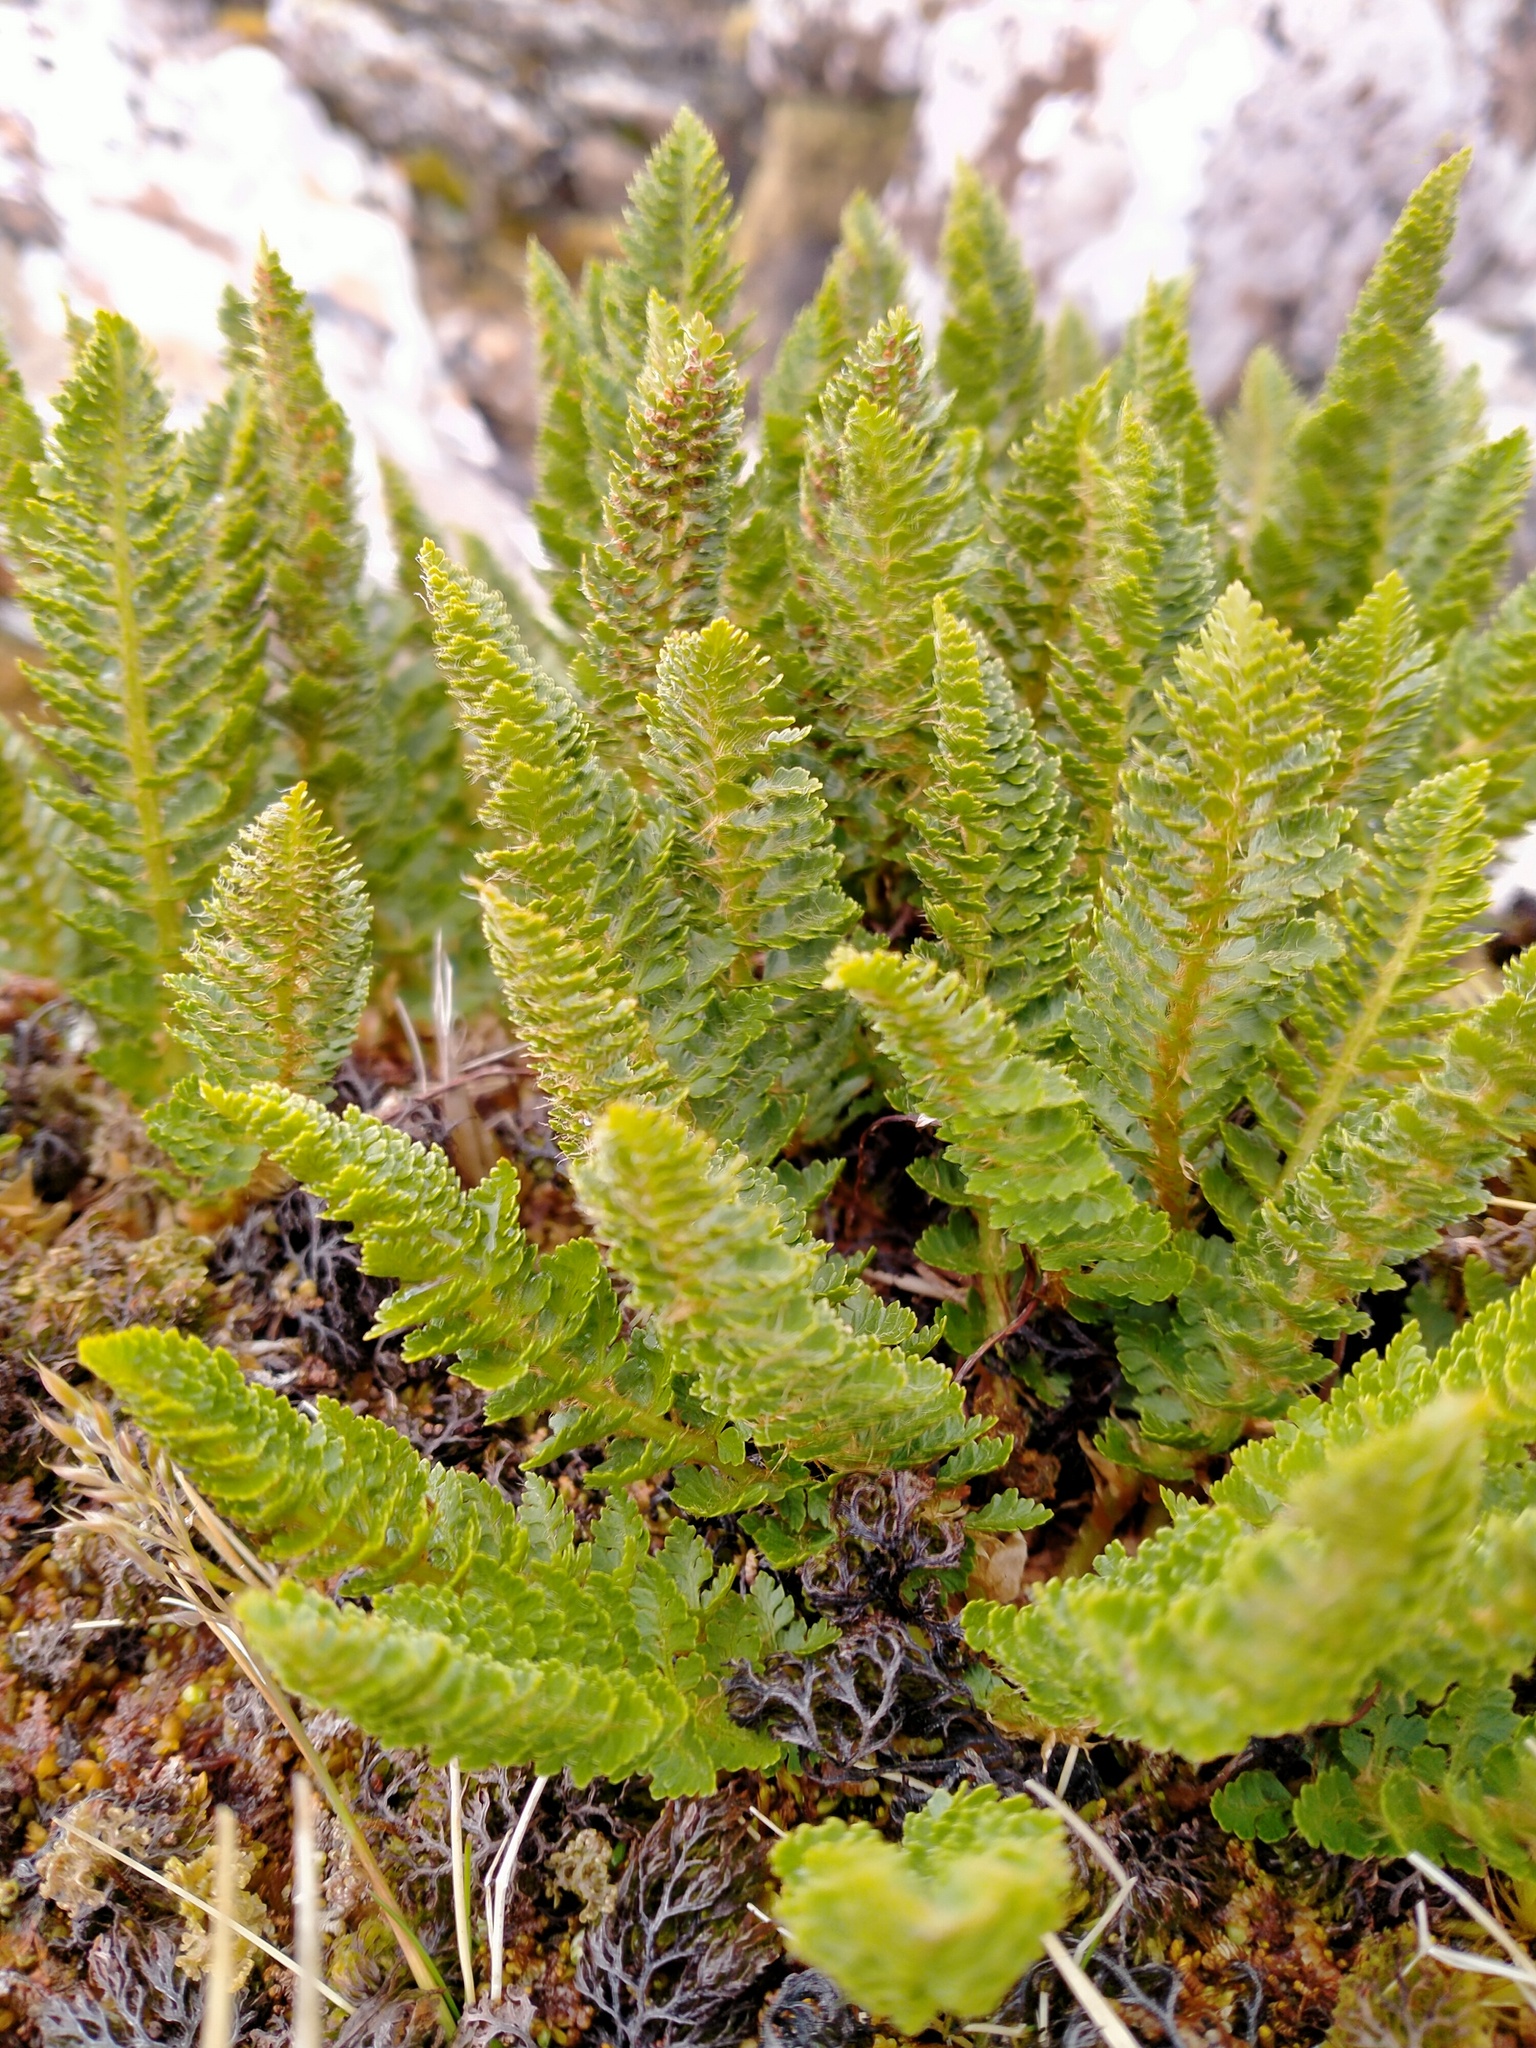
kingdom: Plantae
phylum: Tracheophyta
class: Polypodiopsida
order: Polypodiales
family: Dryopteridaceae
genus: Polystichum
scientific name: Polystichum cystostegia
